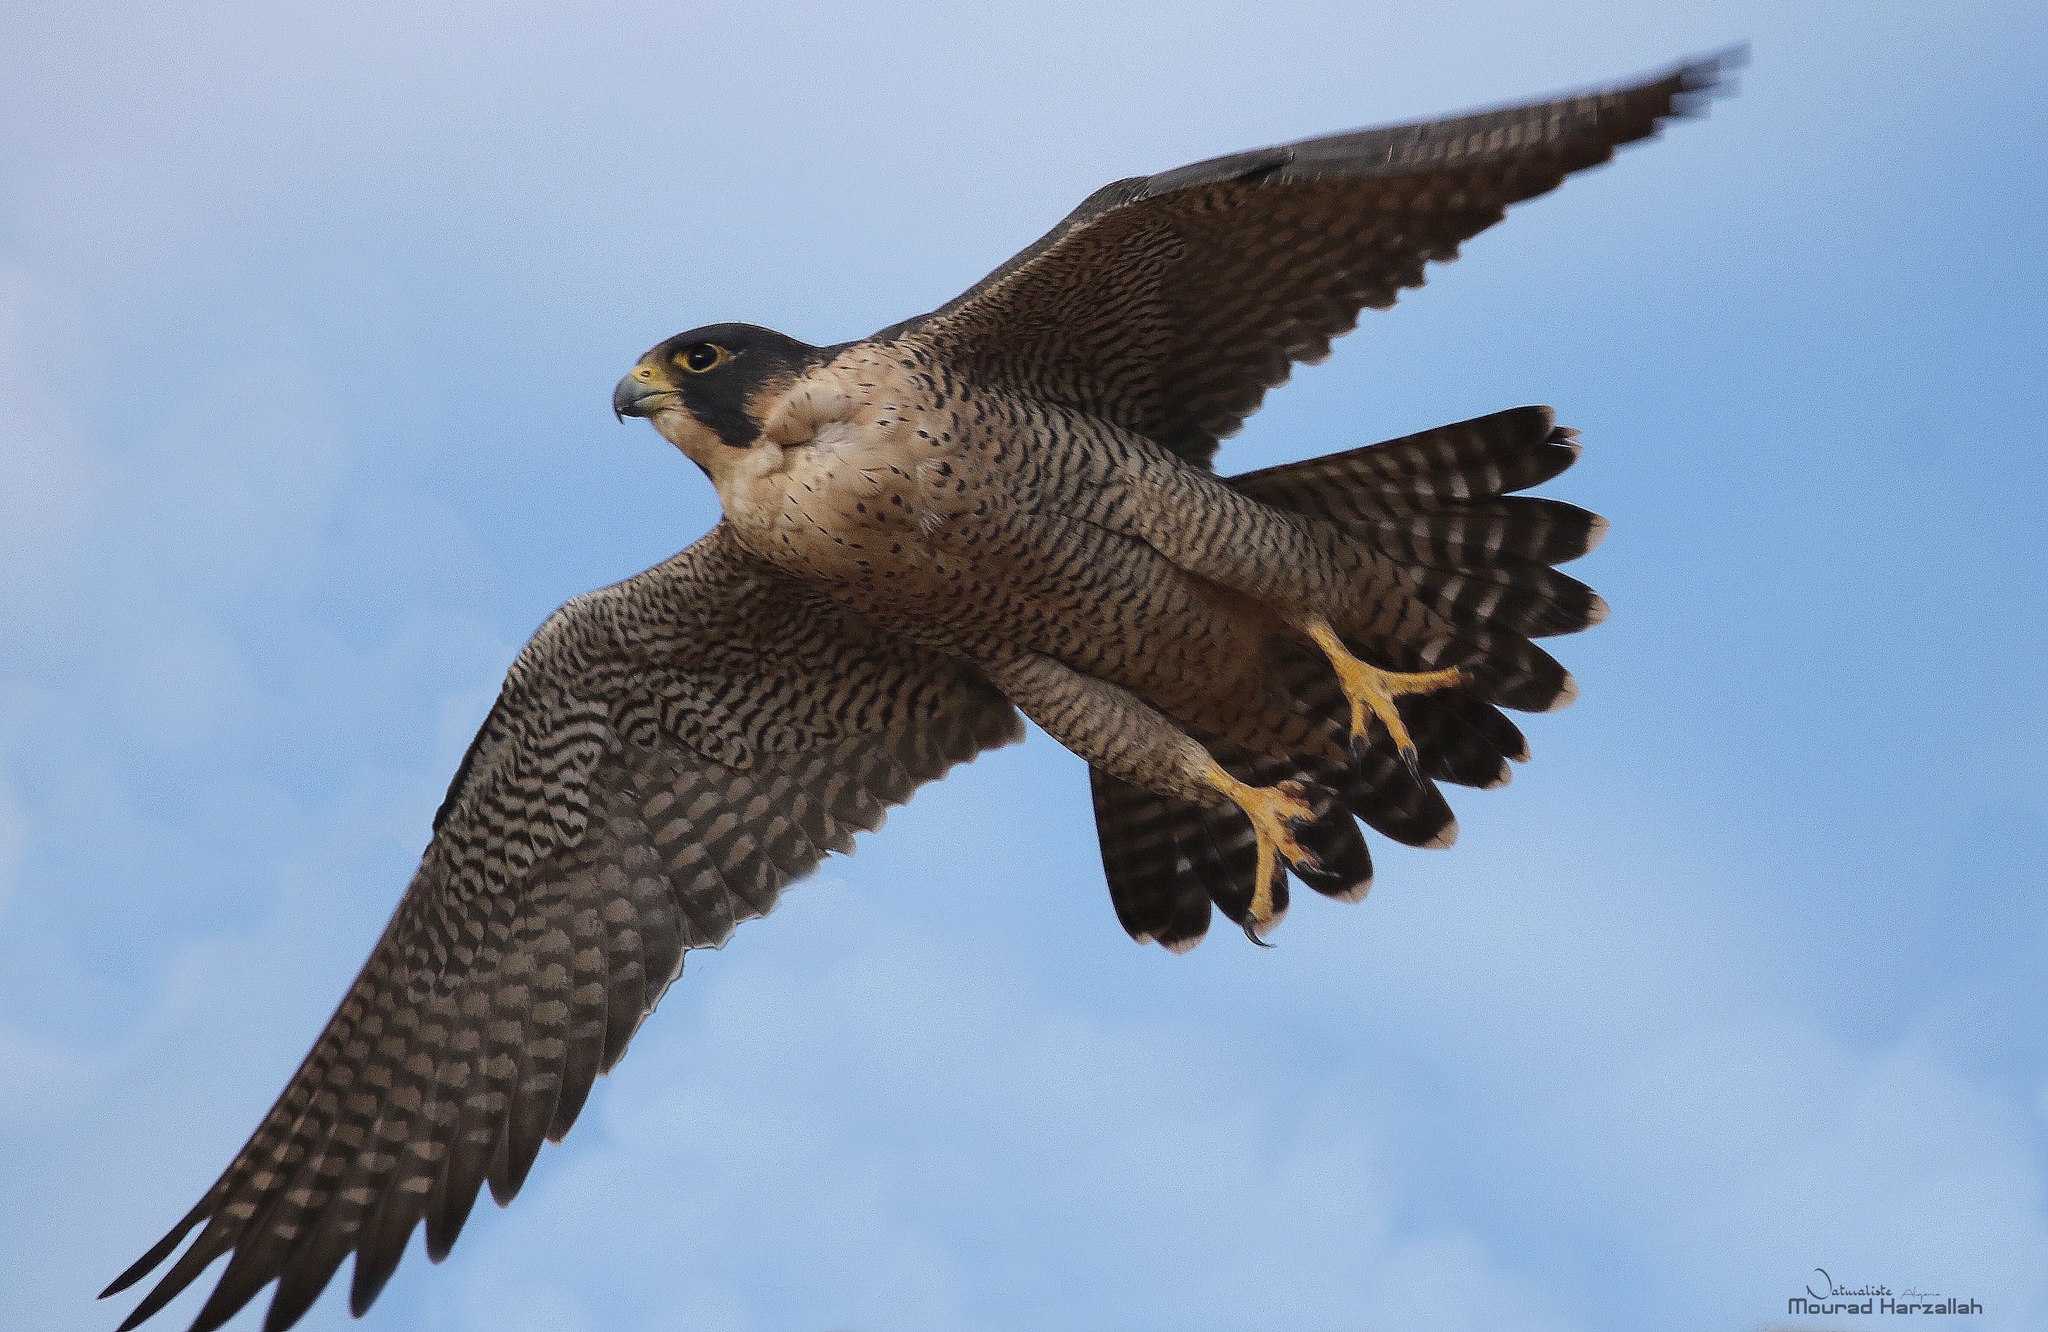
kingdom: Animalia
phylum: Chordata
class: Aves
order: Falconiformes
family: Falconidae
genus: Falco
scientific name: Falco peregrinus
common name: Peregrine falcon
